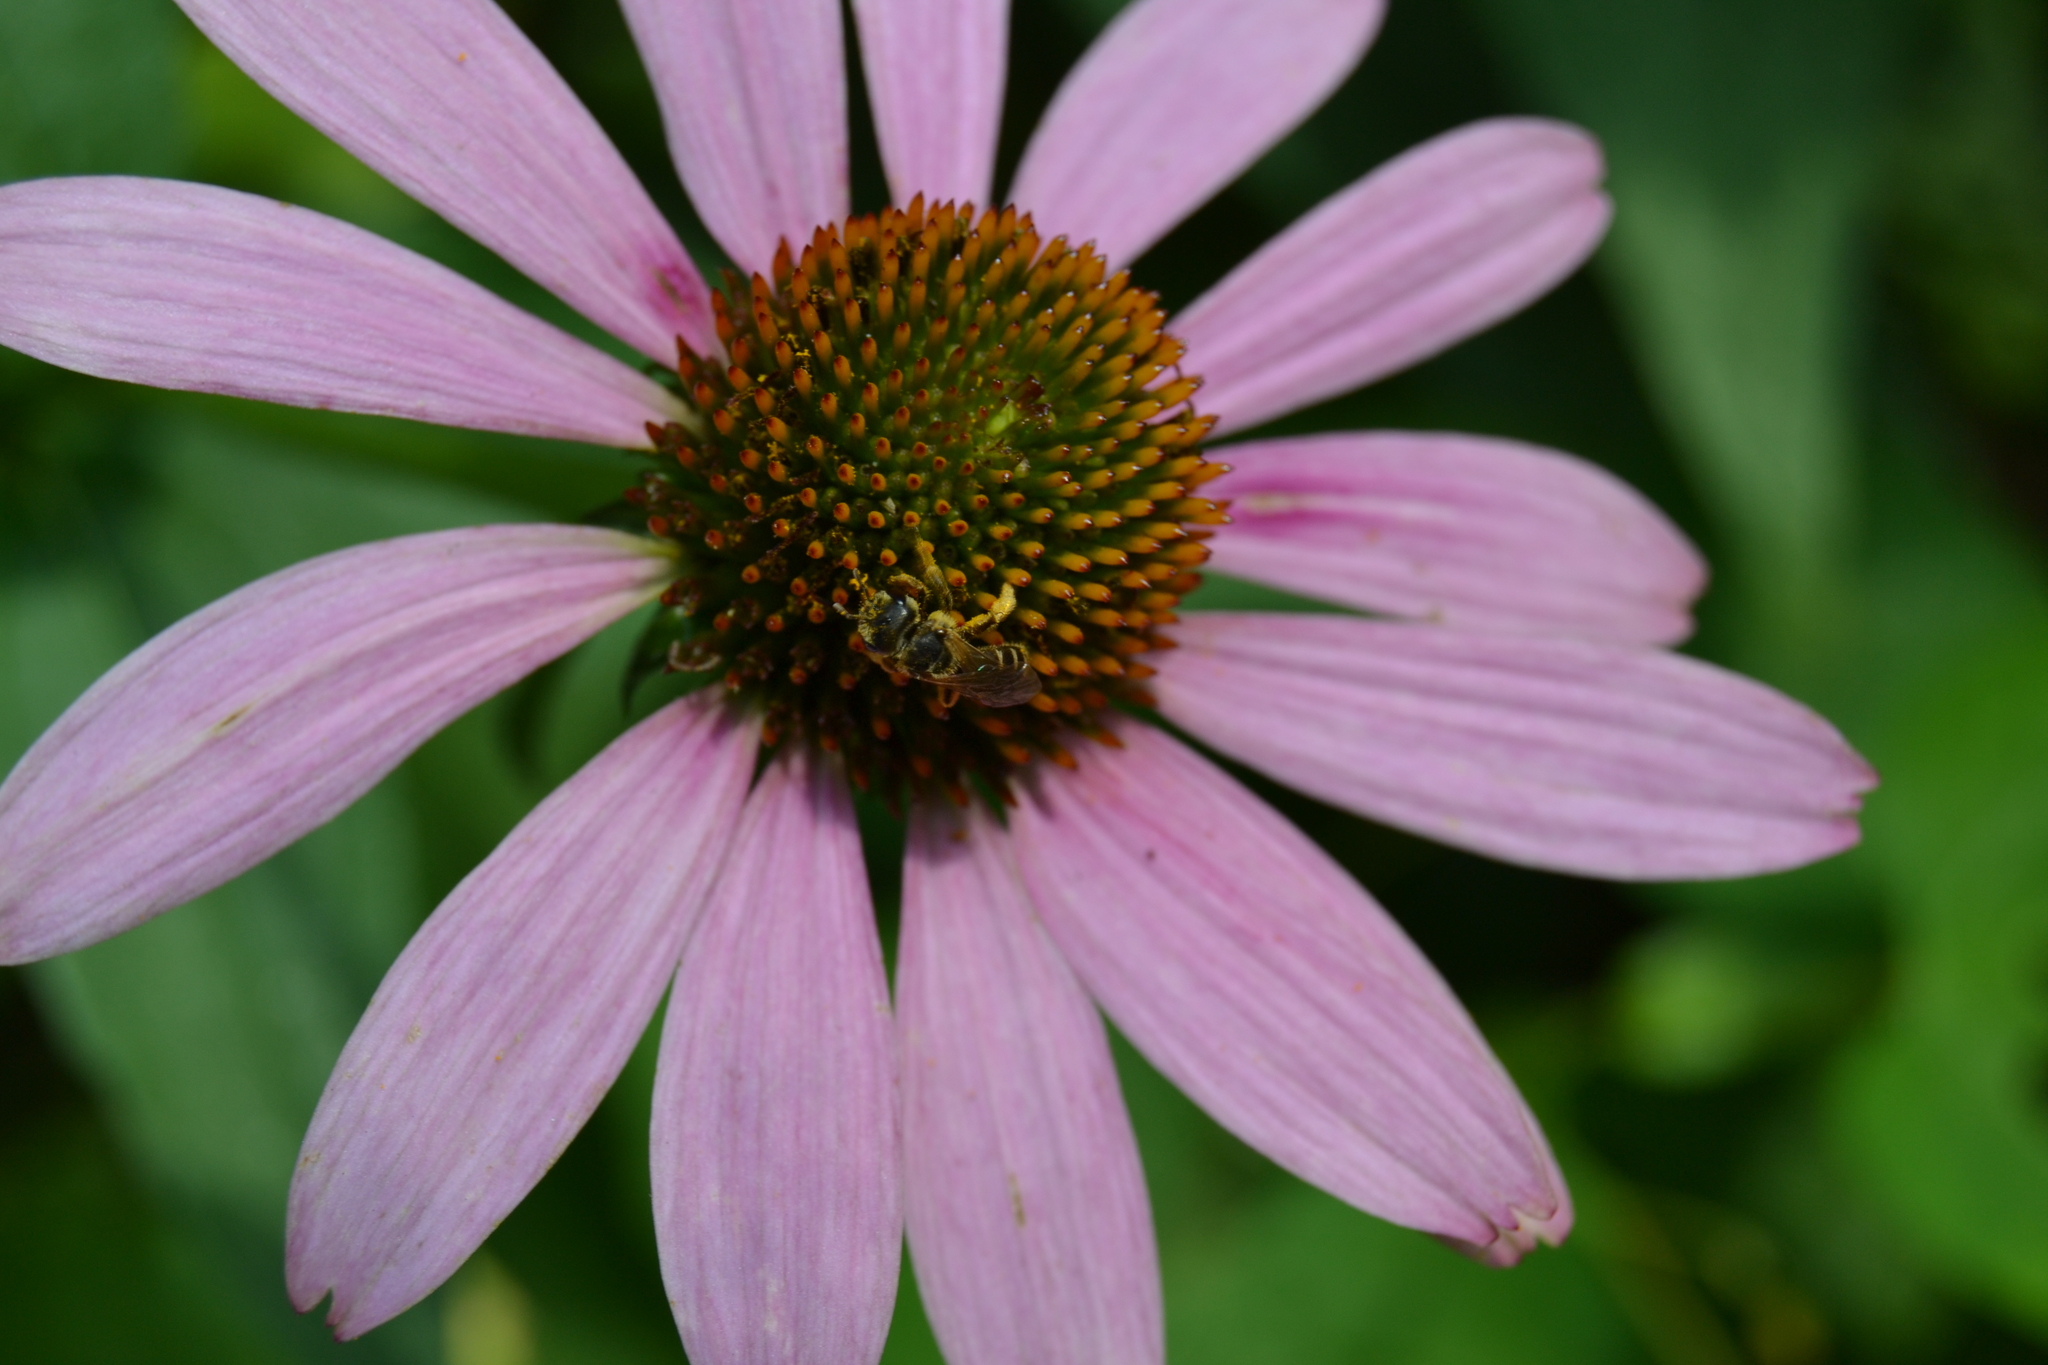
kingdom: Animalia
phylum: Arthropoda
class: Insecta
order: Hymenoptera
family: Halictidae
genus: Halictus
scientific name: Halictus ligatus
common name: Ligated furrow bee
